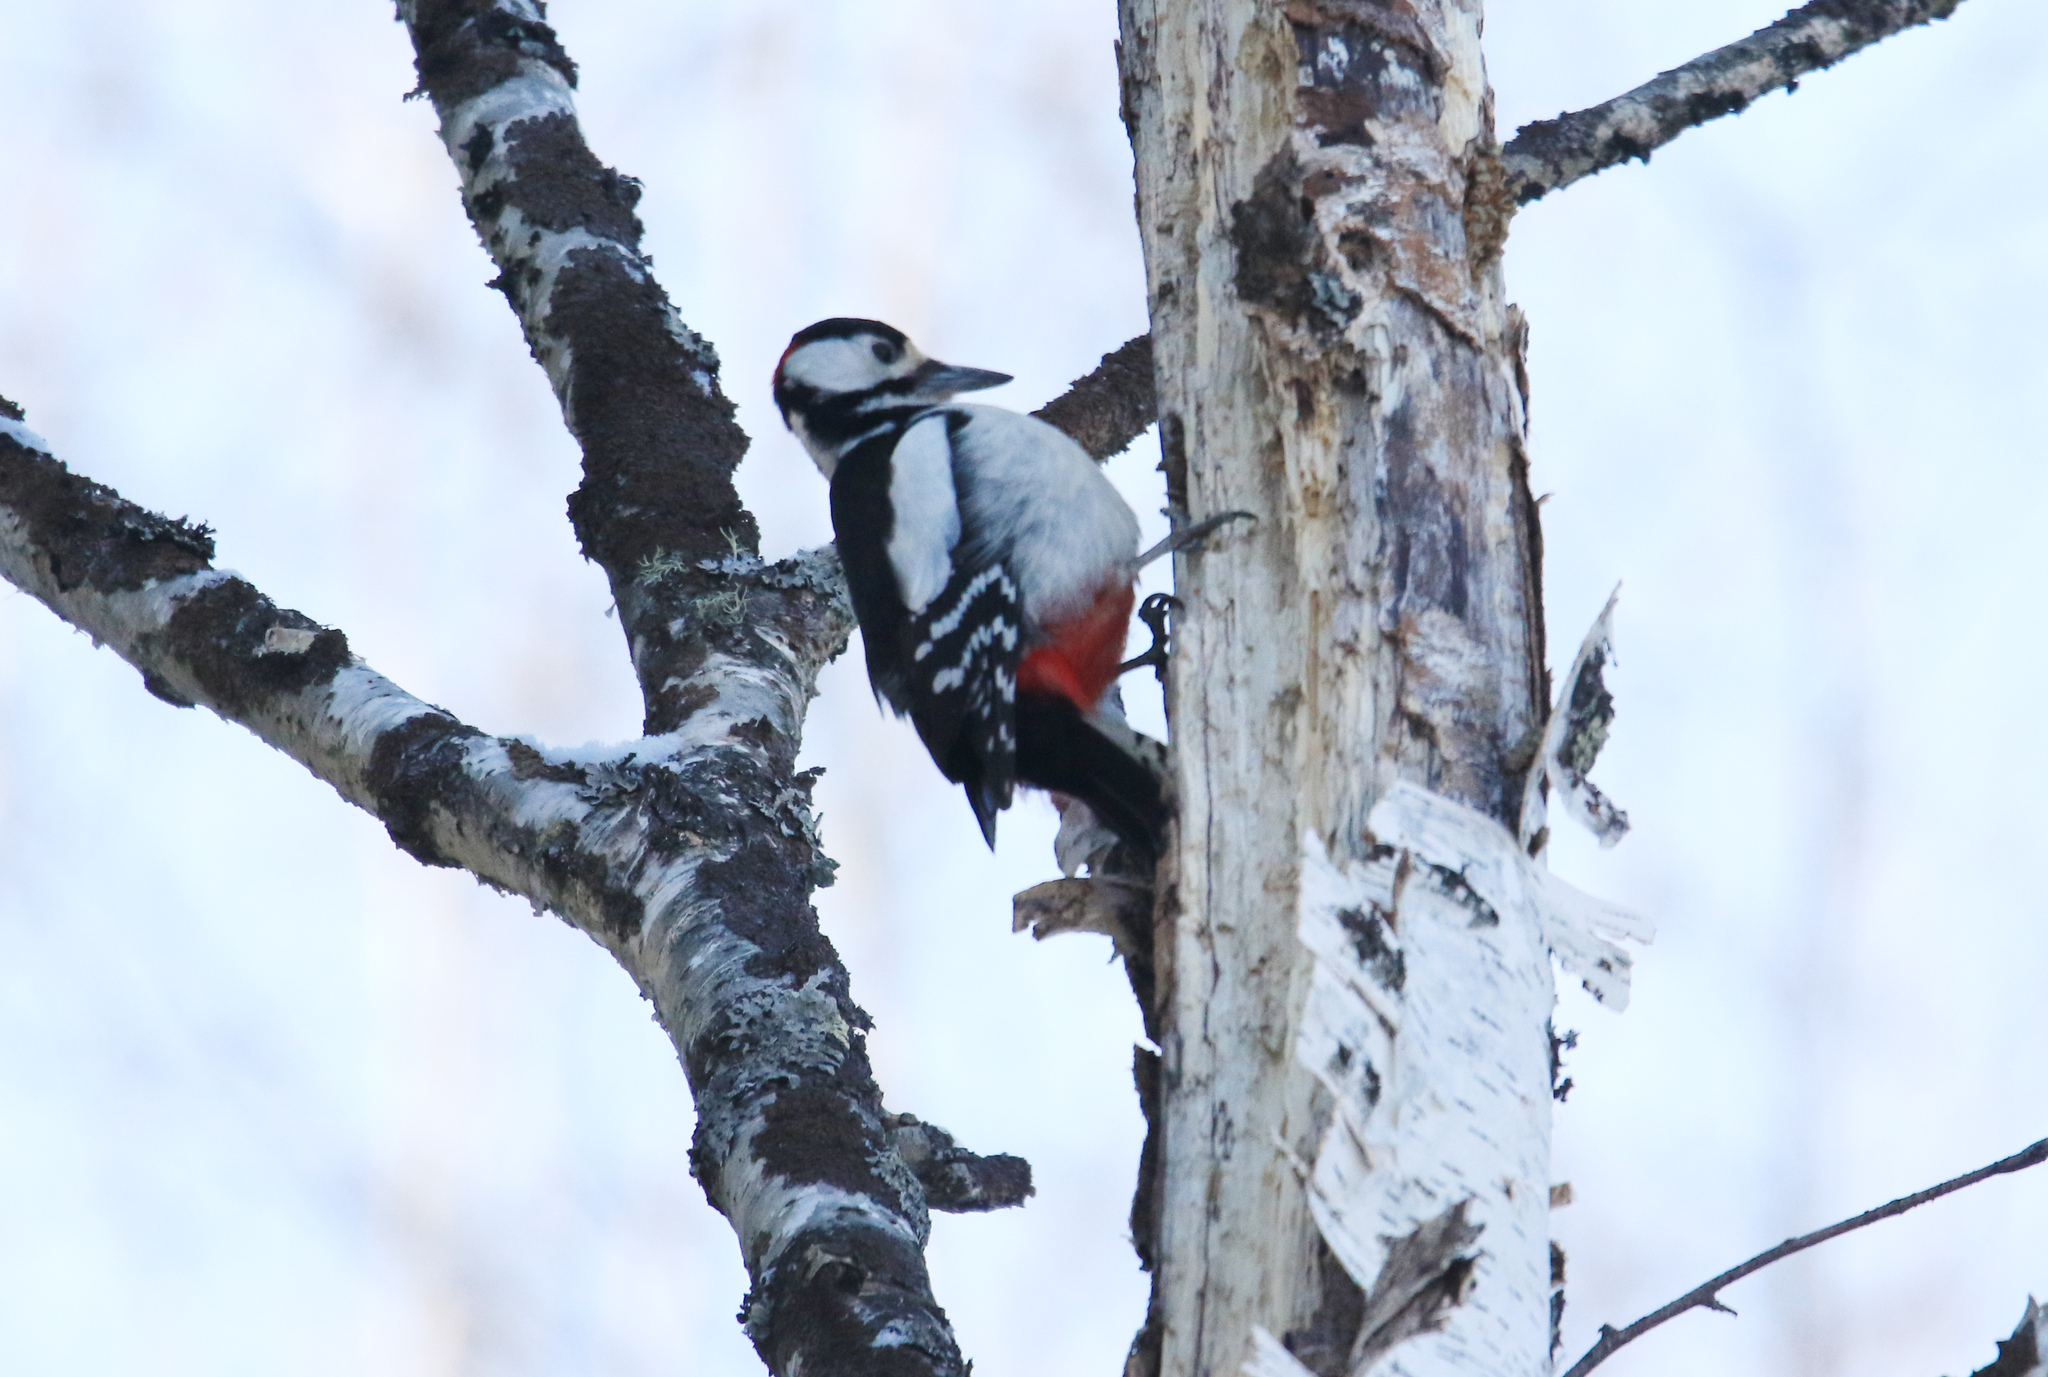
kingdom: Animalia
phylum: Chordata
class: Aves
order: Piciformes
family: Picidae
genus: Dendrocopos
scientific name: Dendrocopos major
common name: Great spotted woodpecker
